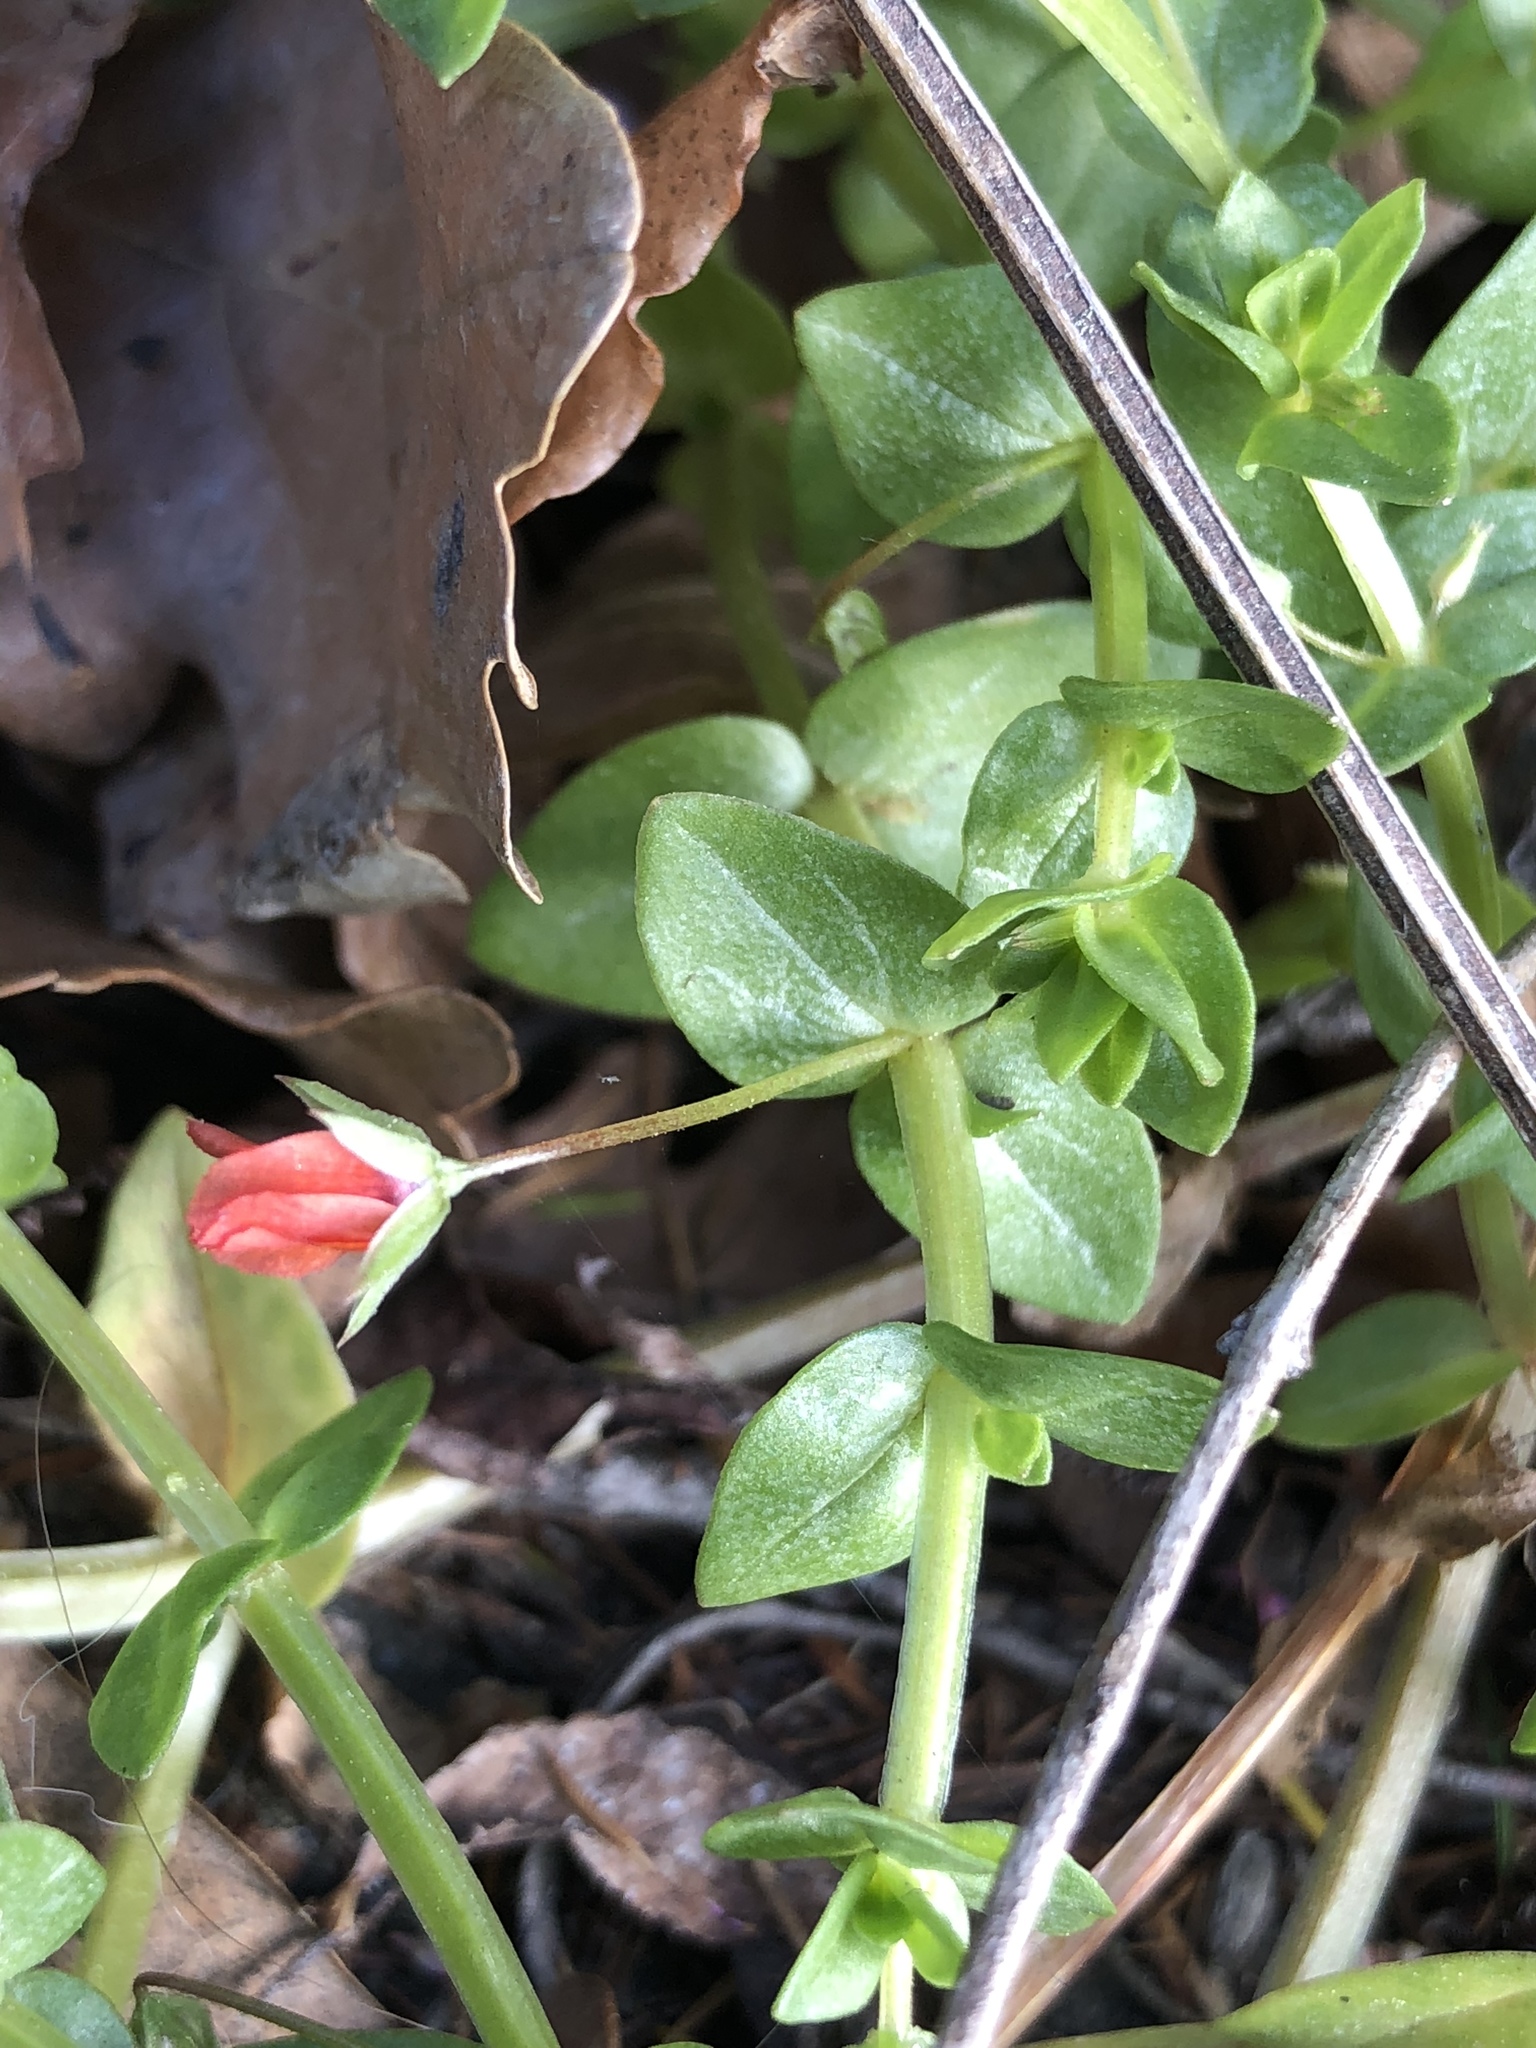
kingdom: Plantae
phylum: Tracheophyta
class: Magnoliopsida
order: Ericales
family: Primulaceae
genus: Lysimachia
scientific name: Lysimachia arvensis
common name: Scarlet pimpernel
